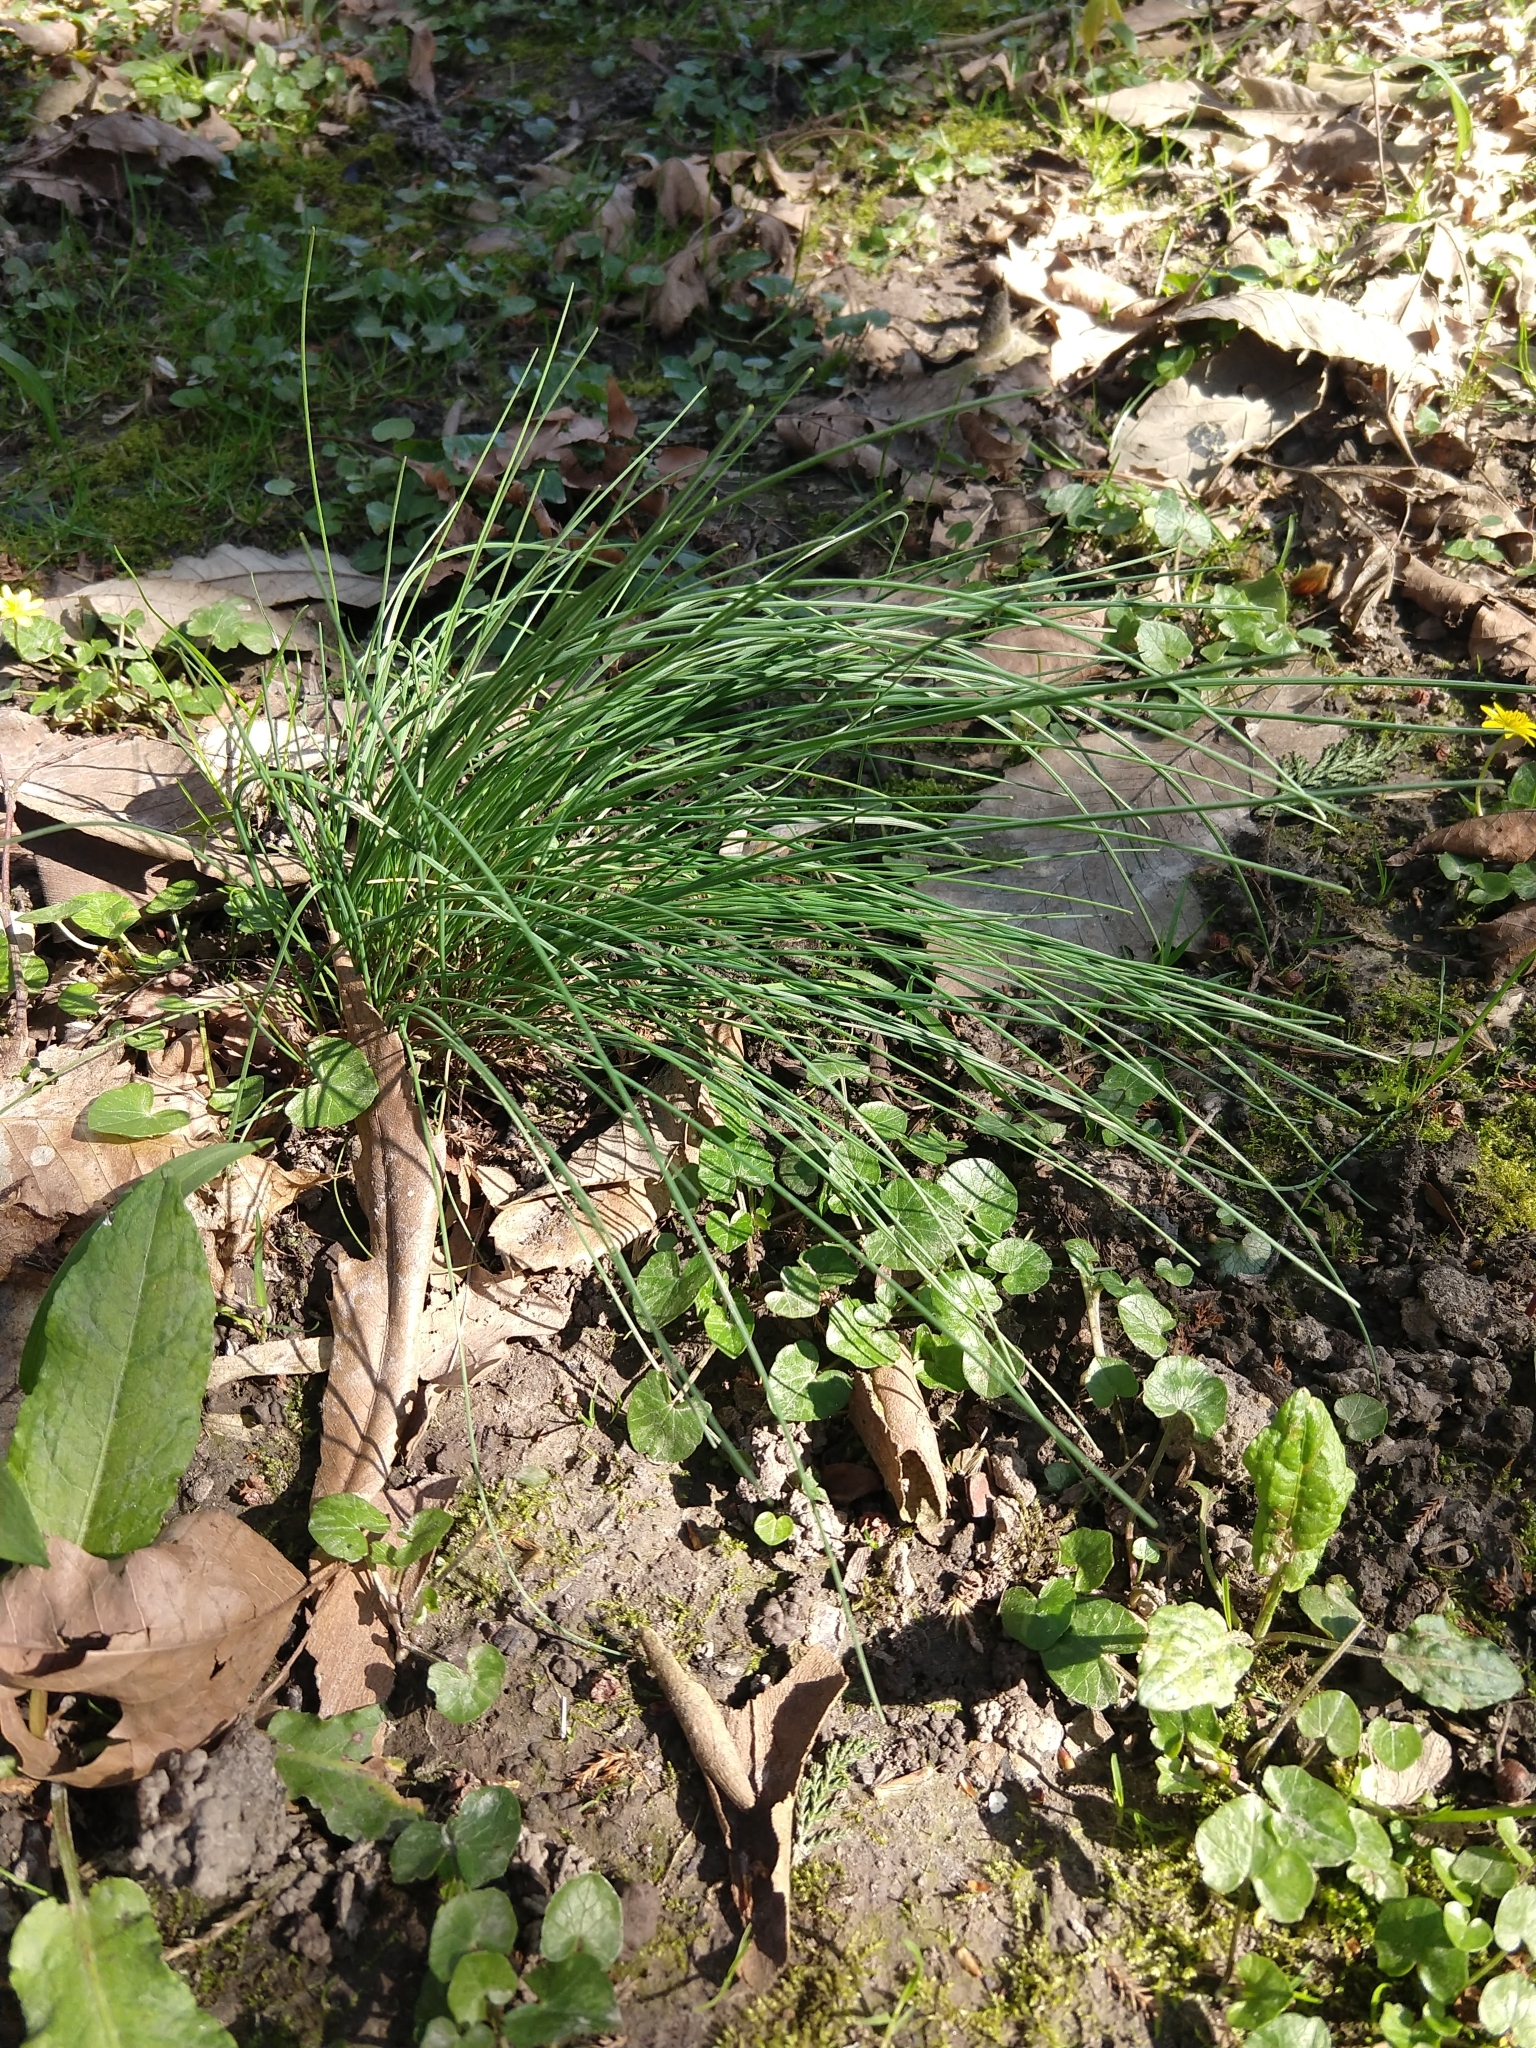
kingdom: Plantae
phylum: Tracheophyta
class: Liliopsida
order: Asparagales
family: Amaryllidaceae
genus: Allium
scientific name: Allium schoenoprasum
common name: Chives
